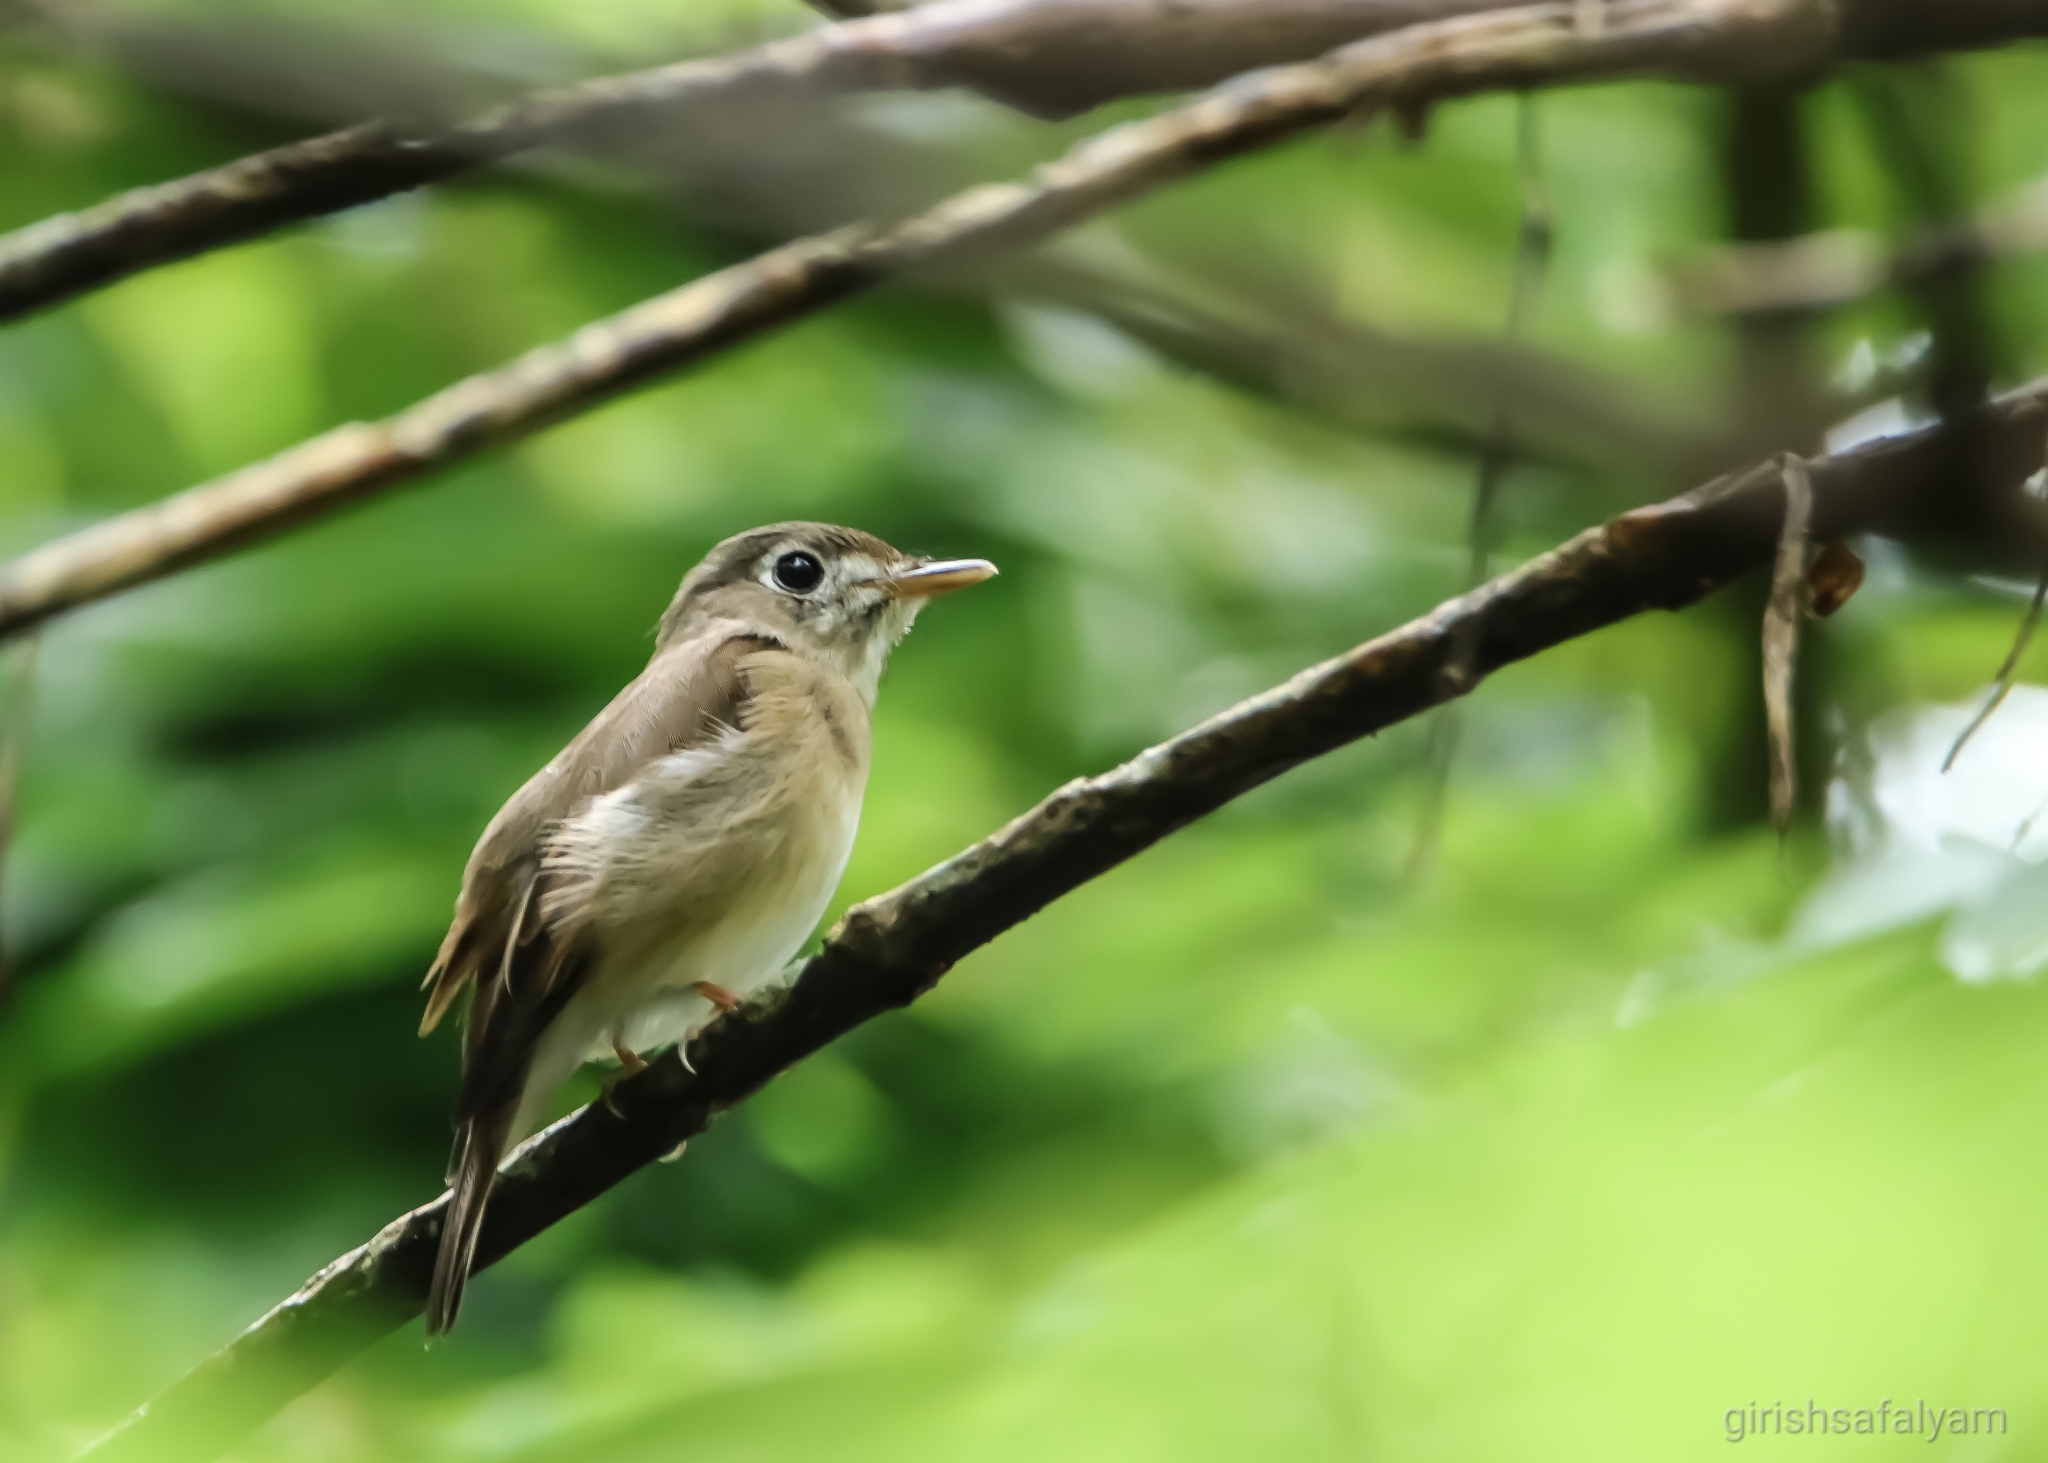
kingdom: Animalia
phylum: Chordata
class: Aves
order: Passeriformes
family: Muscicapidae
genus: Muscicapa
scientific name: Muscicapa muttui
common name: Brown-breasted flycatcher
